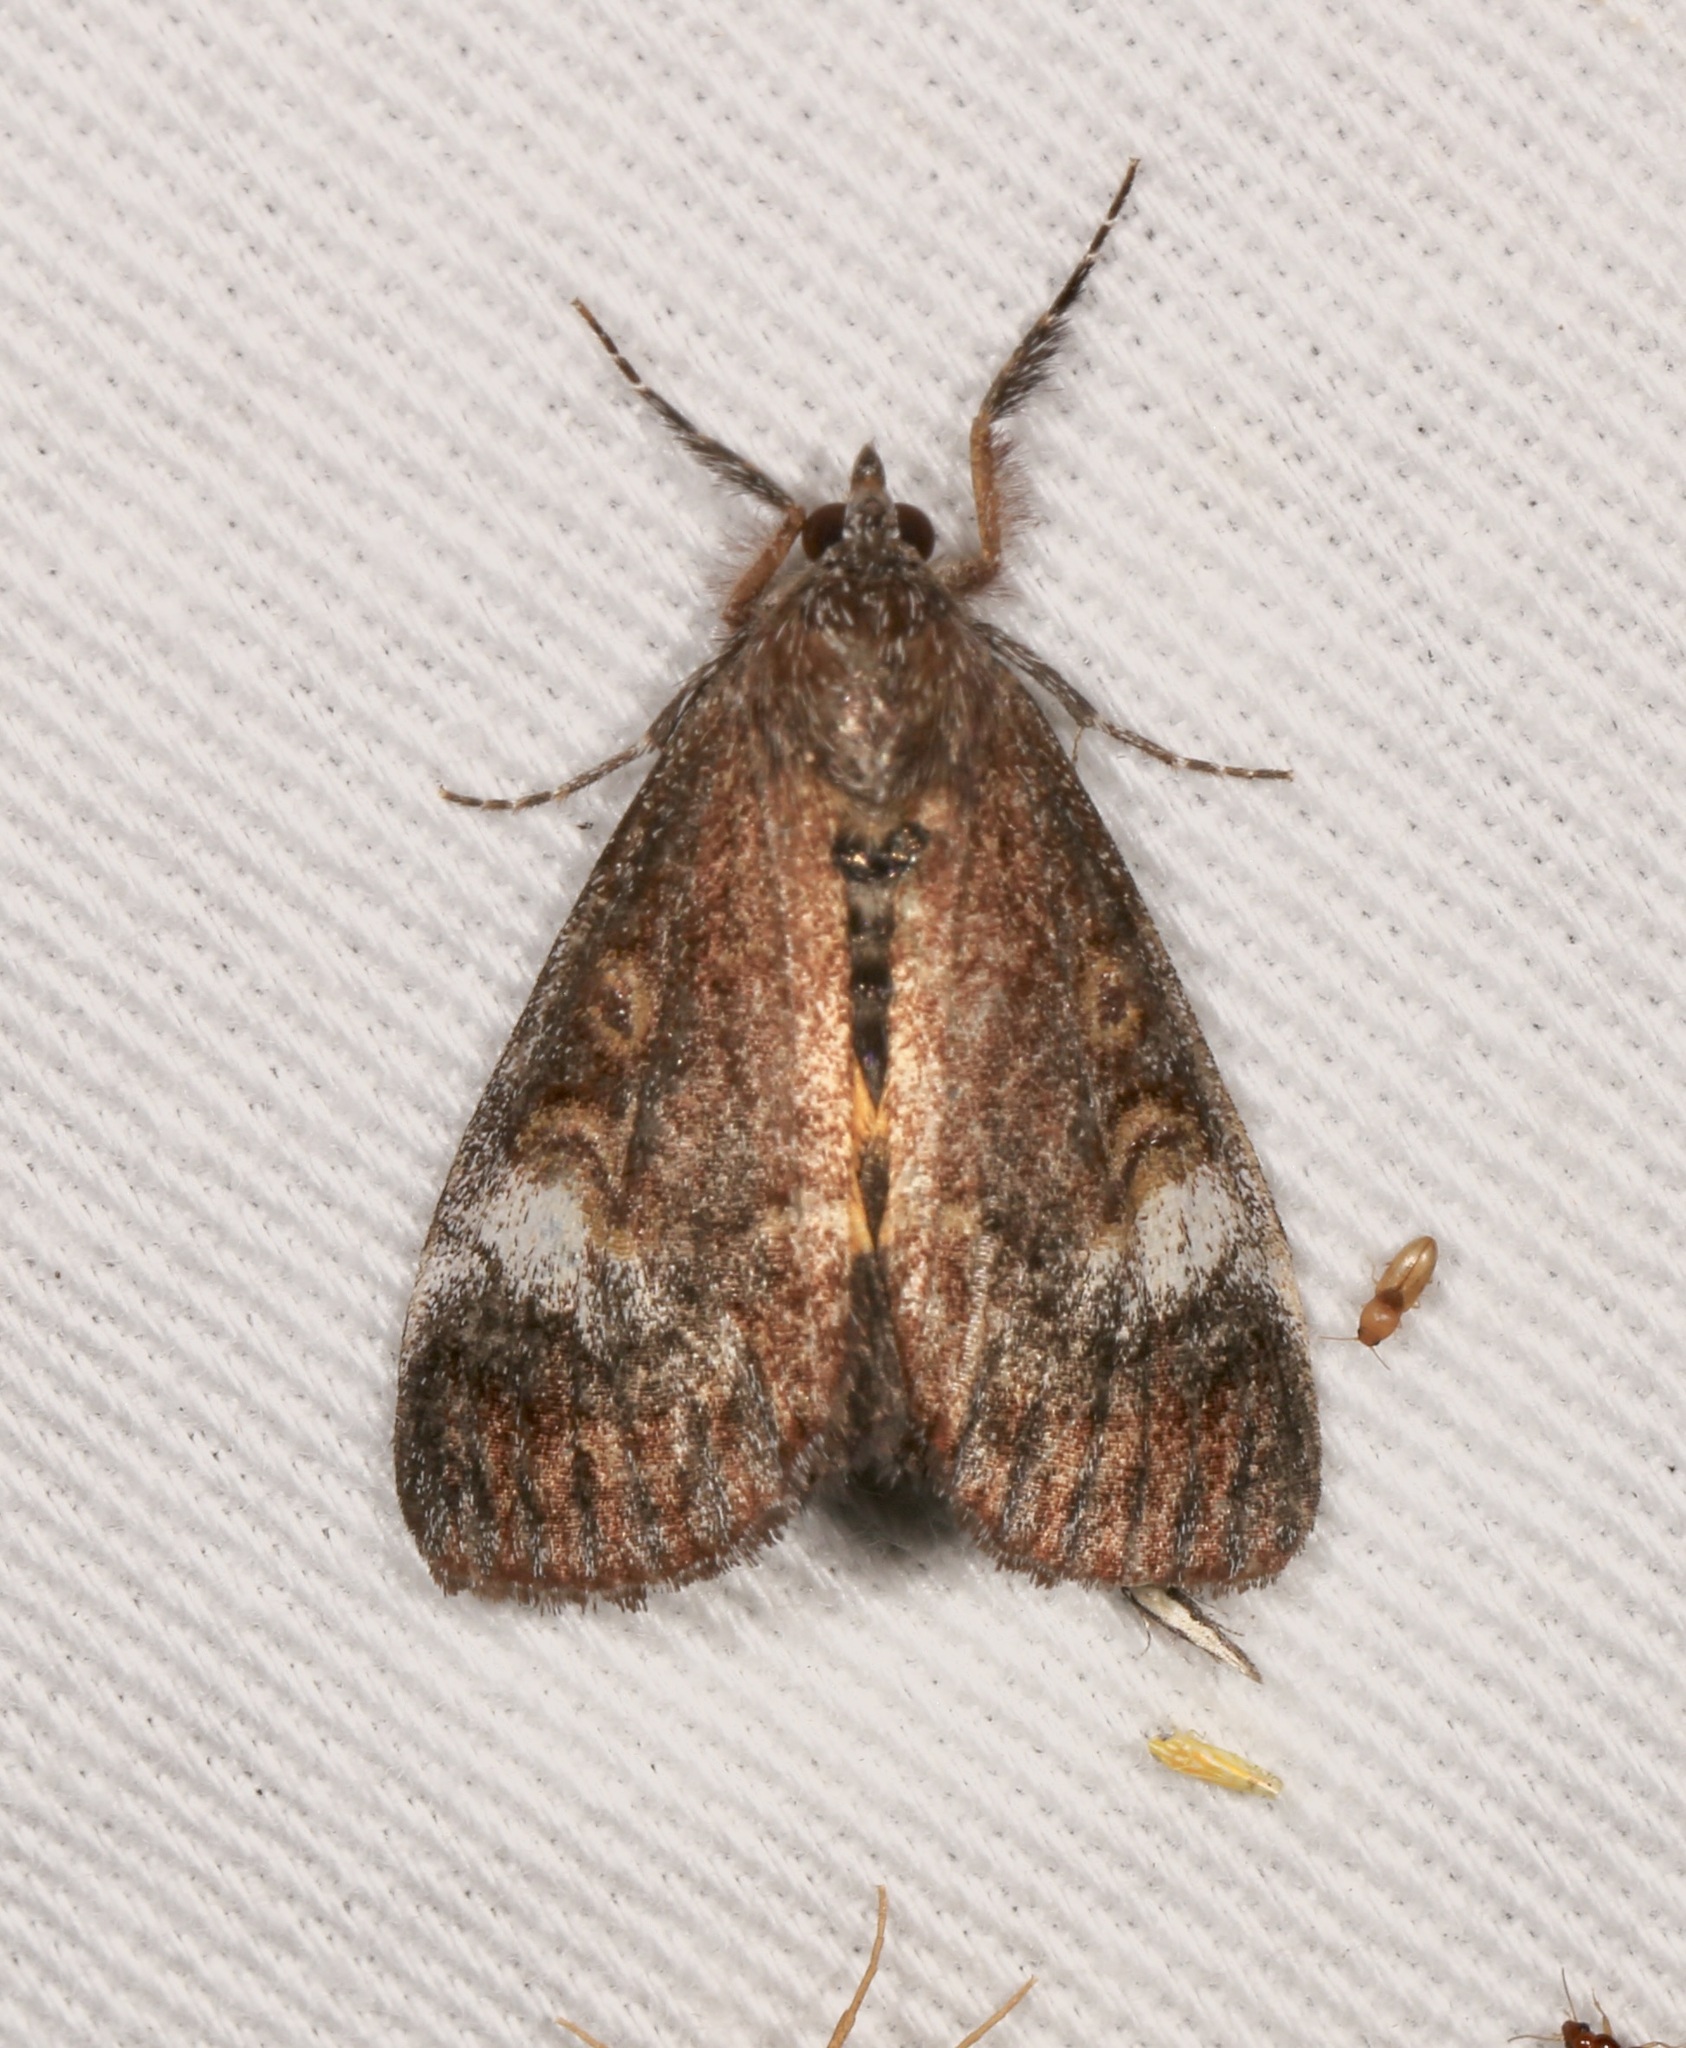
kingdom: Animalia
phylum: Arthropoda
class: Insecta
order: Lepidoptera
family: Noctuidae
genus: Gerra
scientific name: Gerra sevorsa
